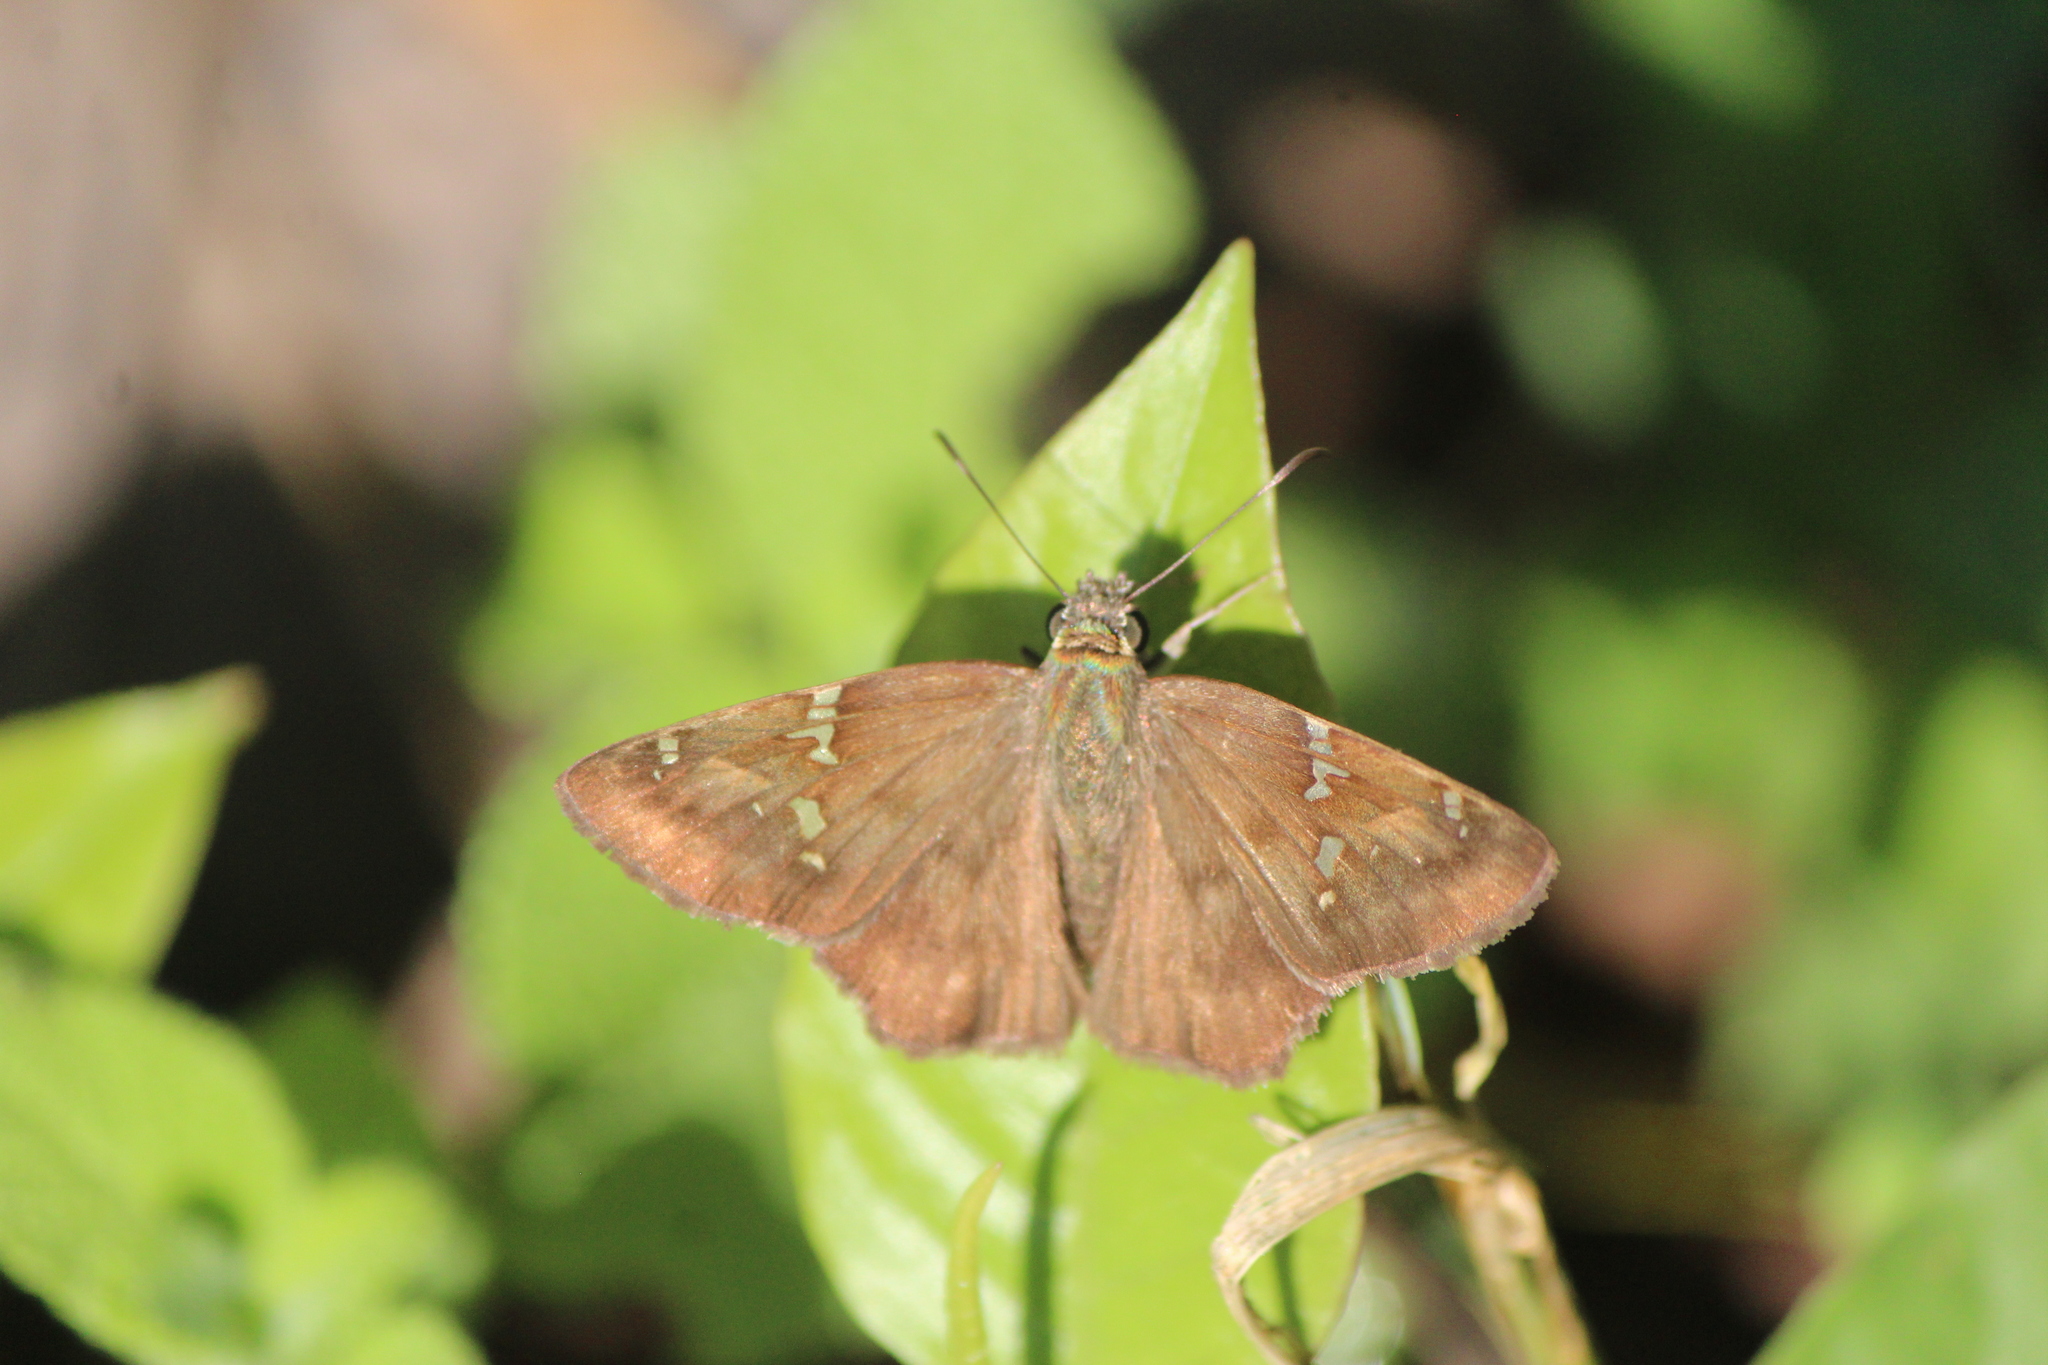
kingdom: Animalia
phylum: Arthropoda
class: Insecta
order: Lepidoptera
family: Hesperiidae
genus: Autochton
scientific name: Autochton potrillo
